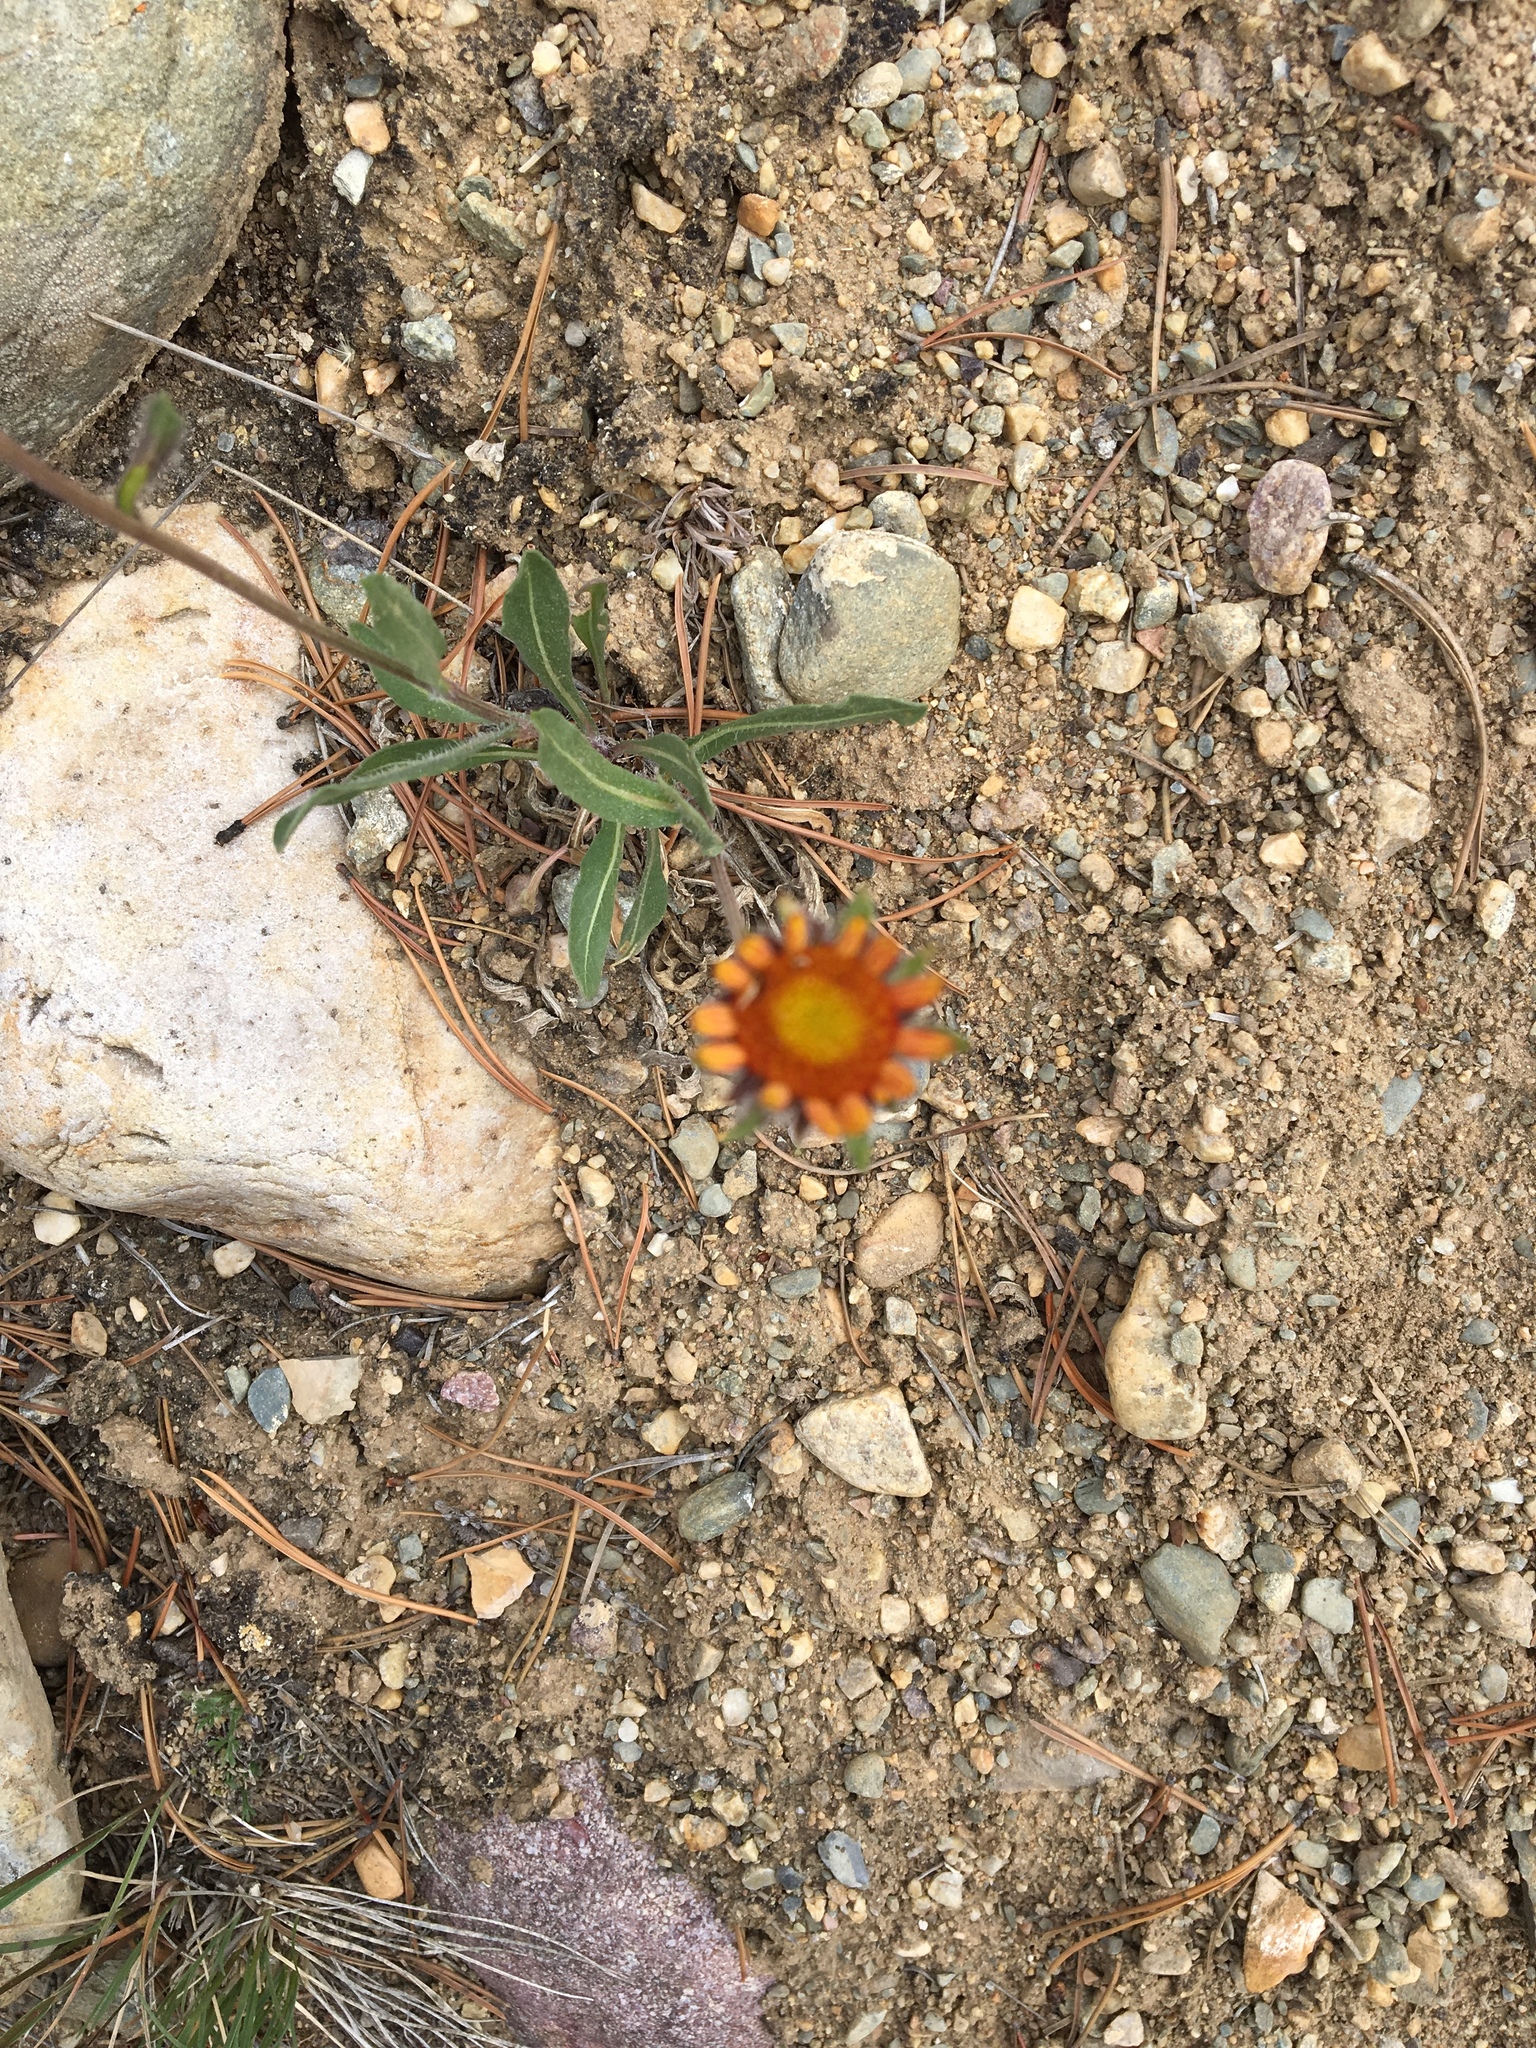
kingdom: Plantae
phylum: Tracheophyta
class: Magnoliopsida
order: Asterales
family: Asteraceae
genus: Gaillardia
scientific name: Gaillardia aristata
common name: Blanket-flower
